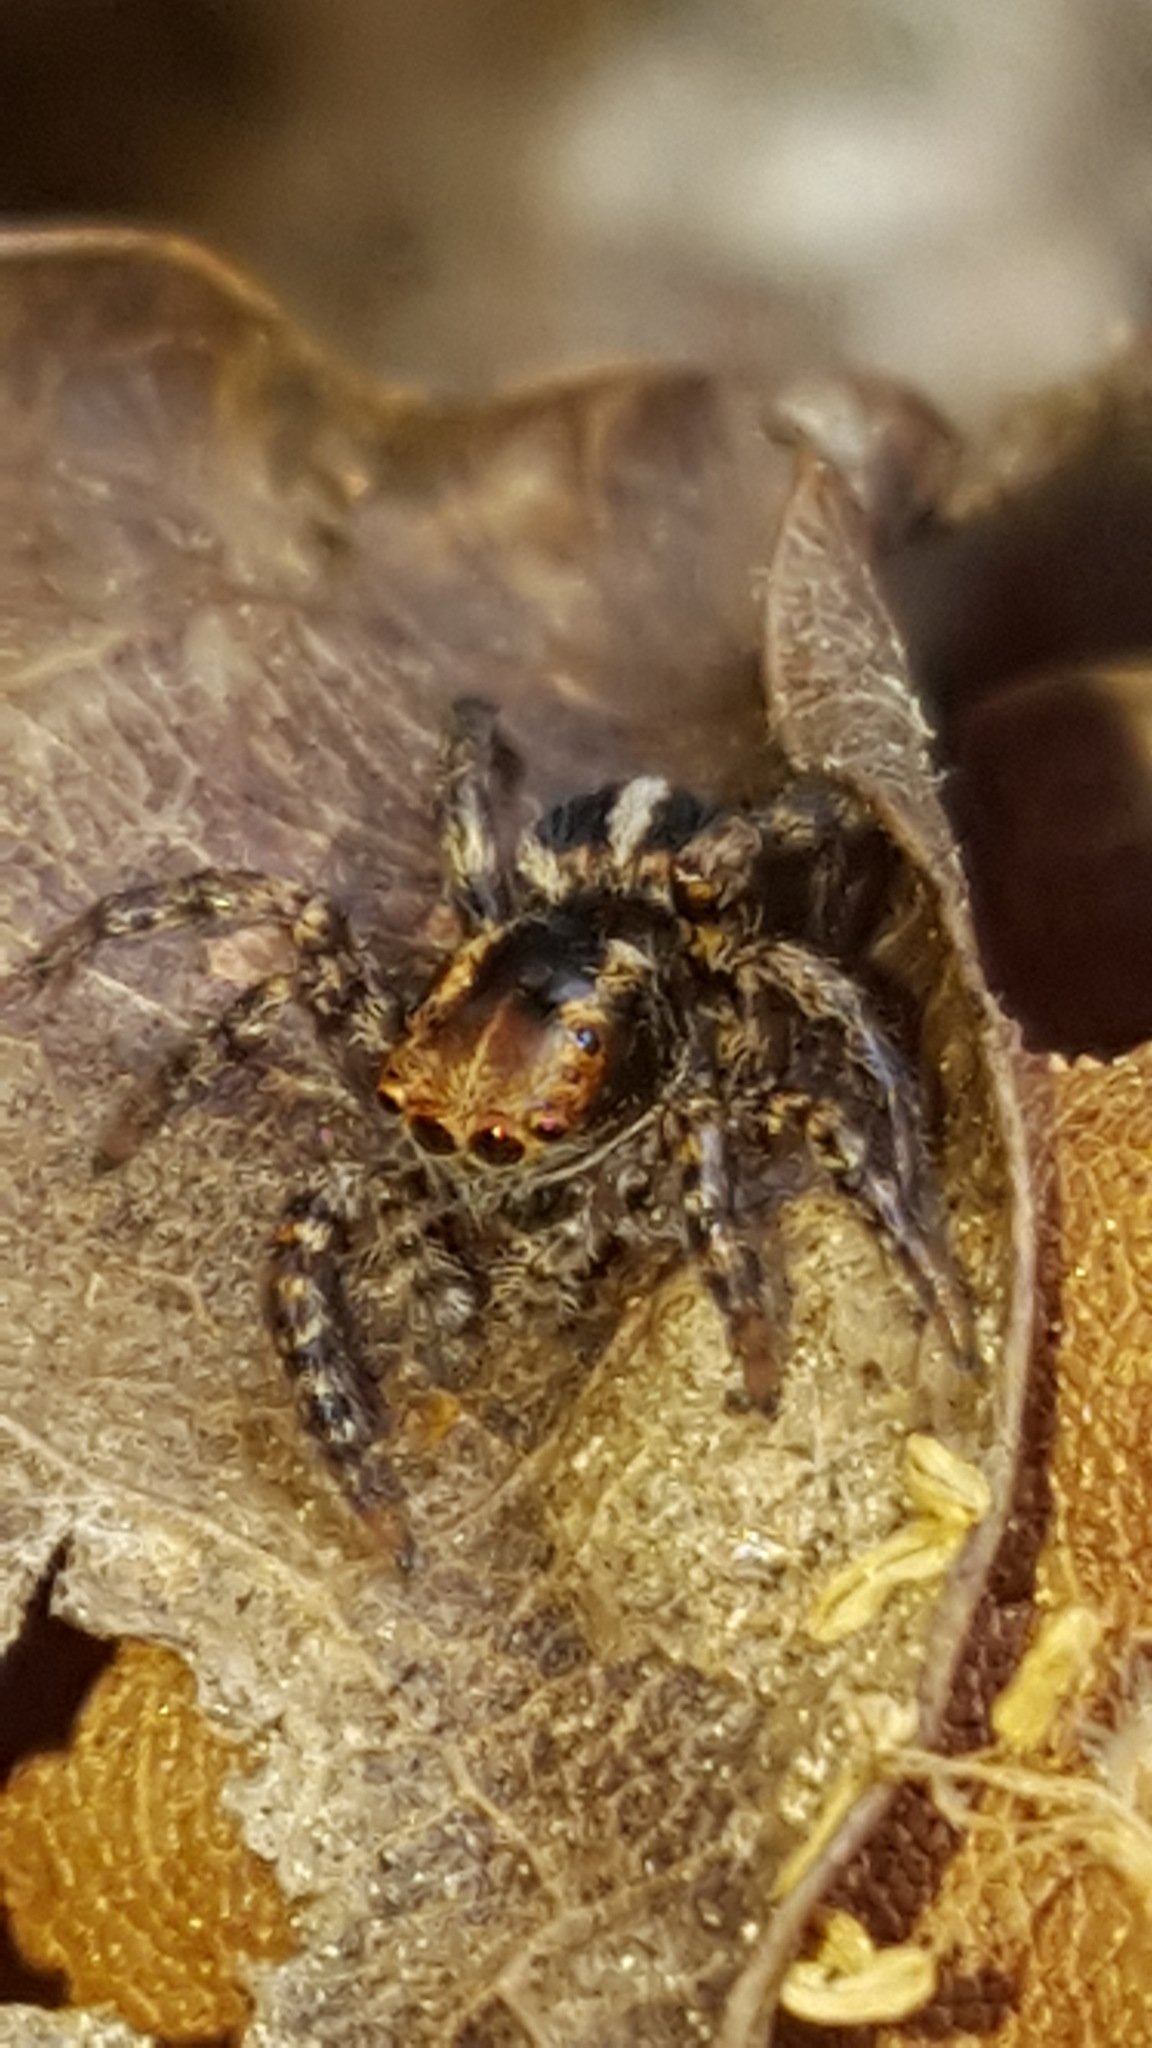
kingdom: Animalia
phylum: Arthropoda
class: Arachnida
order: Araneae
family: Salticidae
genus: Phlegra
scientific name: Phlegra hentzi
